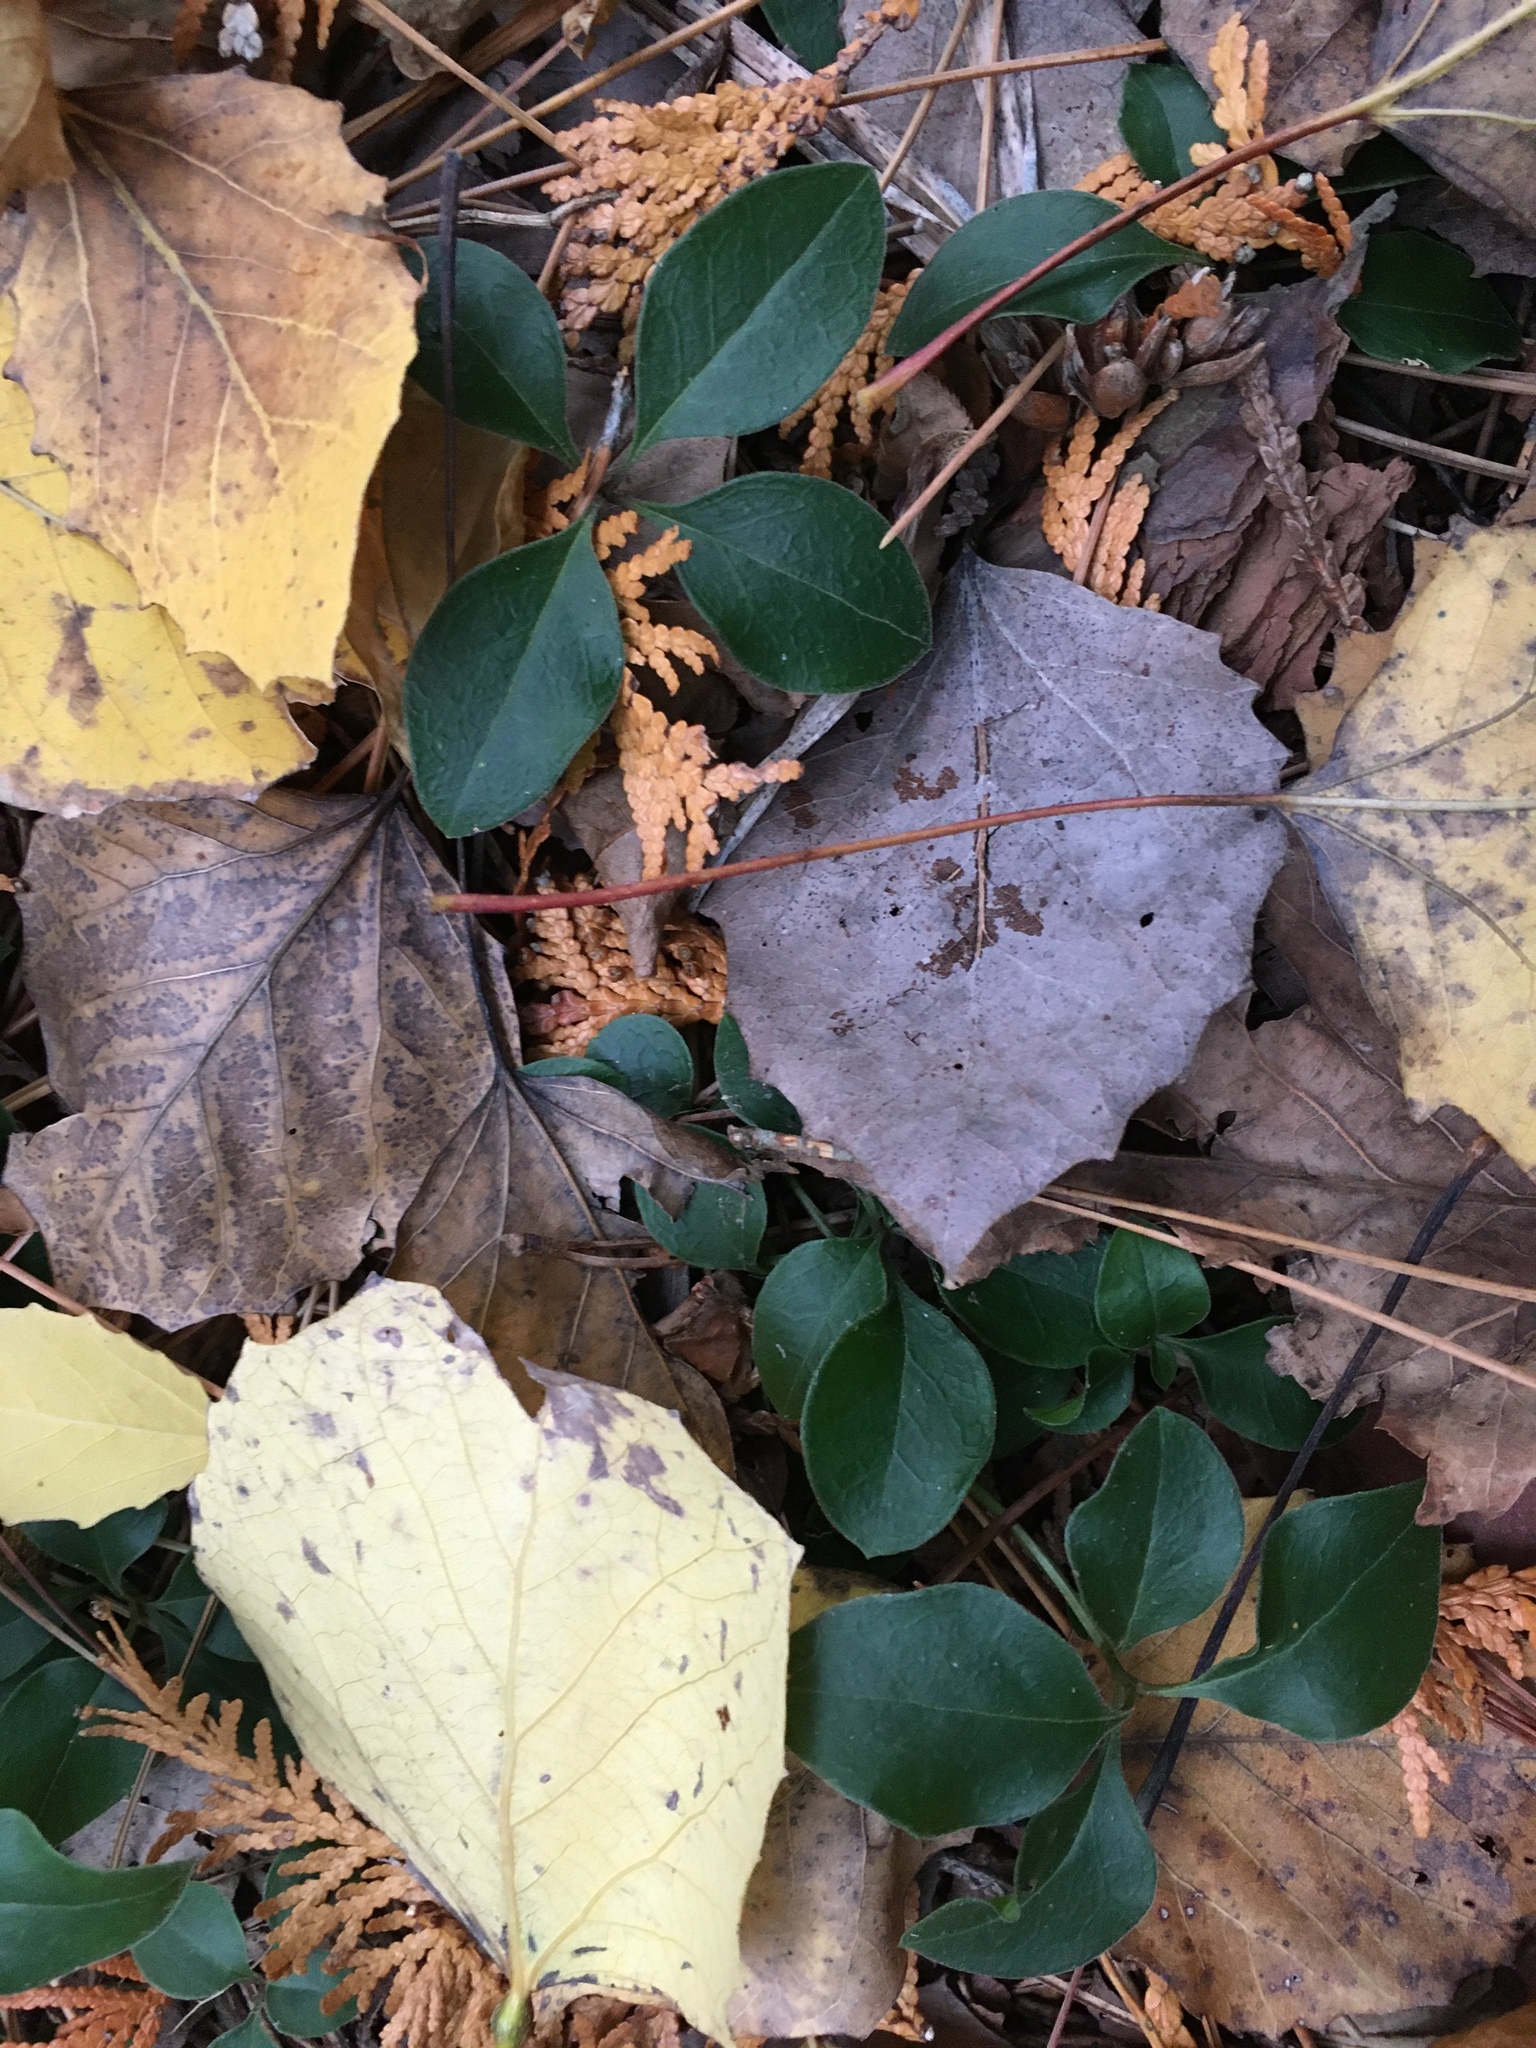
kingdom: Plantae
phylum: Tracheophyta
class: Magnoliopsida
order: Fabales
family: Polygalaceae
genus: Polygaloides
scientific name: Polygaloides paucifolia
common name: Bird-on-the-wing
